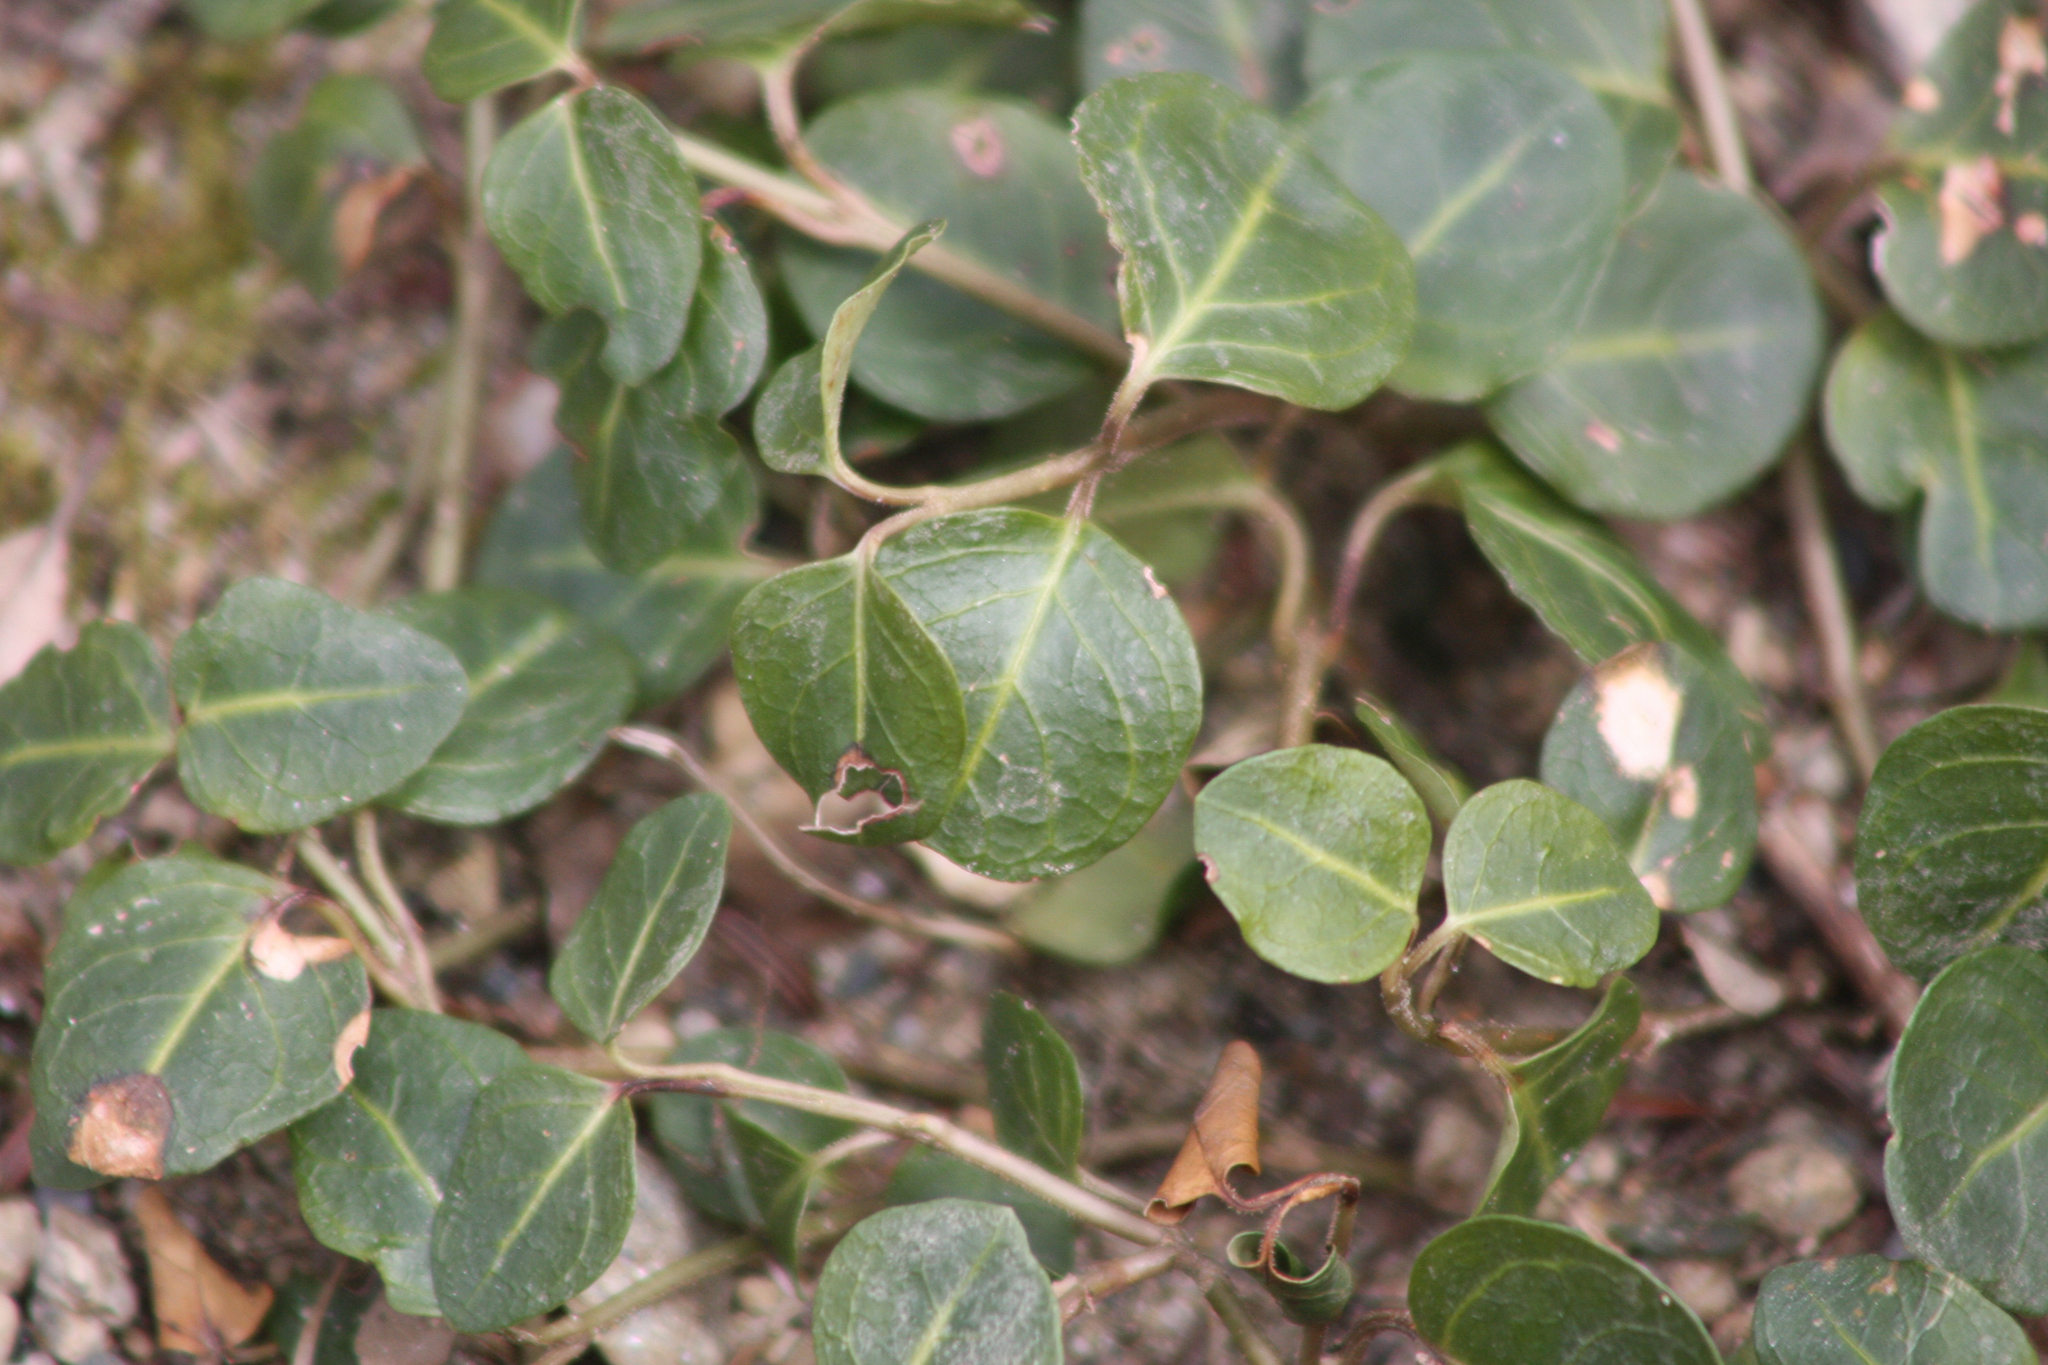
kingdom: Plantae
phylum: Tracheophyta
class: Magnoliopsida
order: Gentianales
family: Rubiaceae
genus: Mitchella
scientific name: Mitchella repens
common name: Partridge-berry
